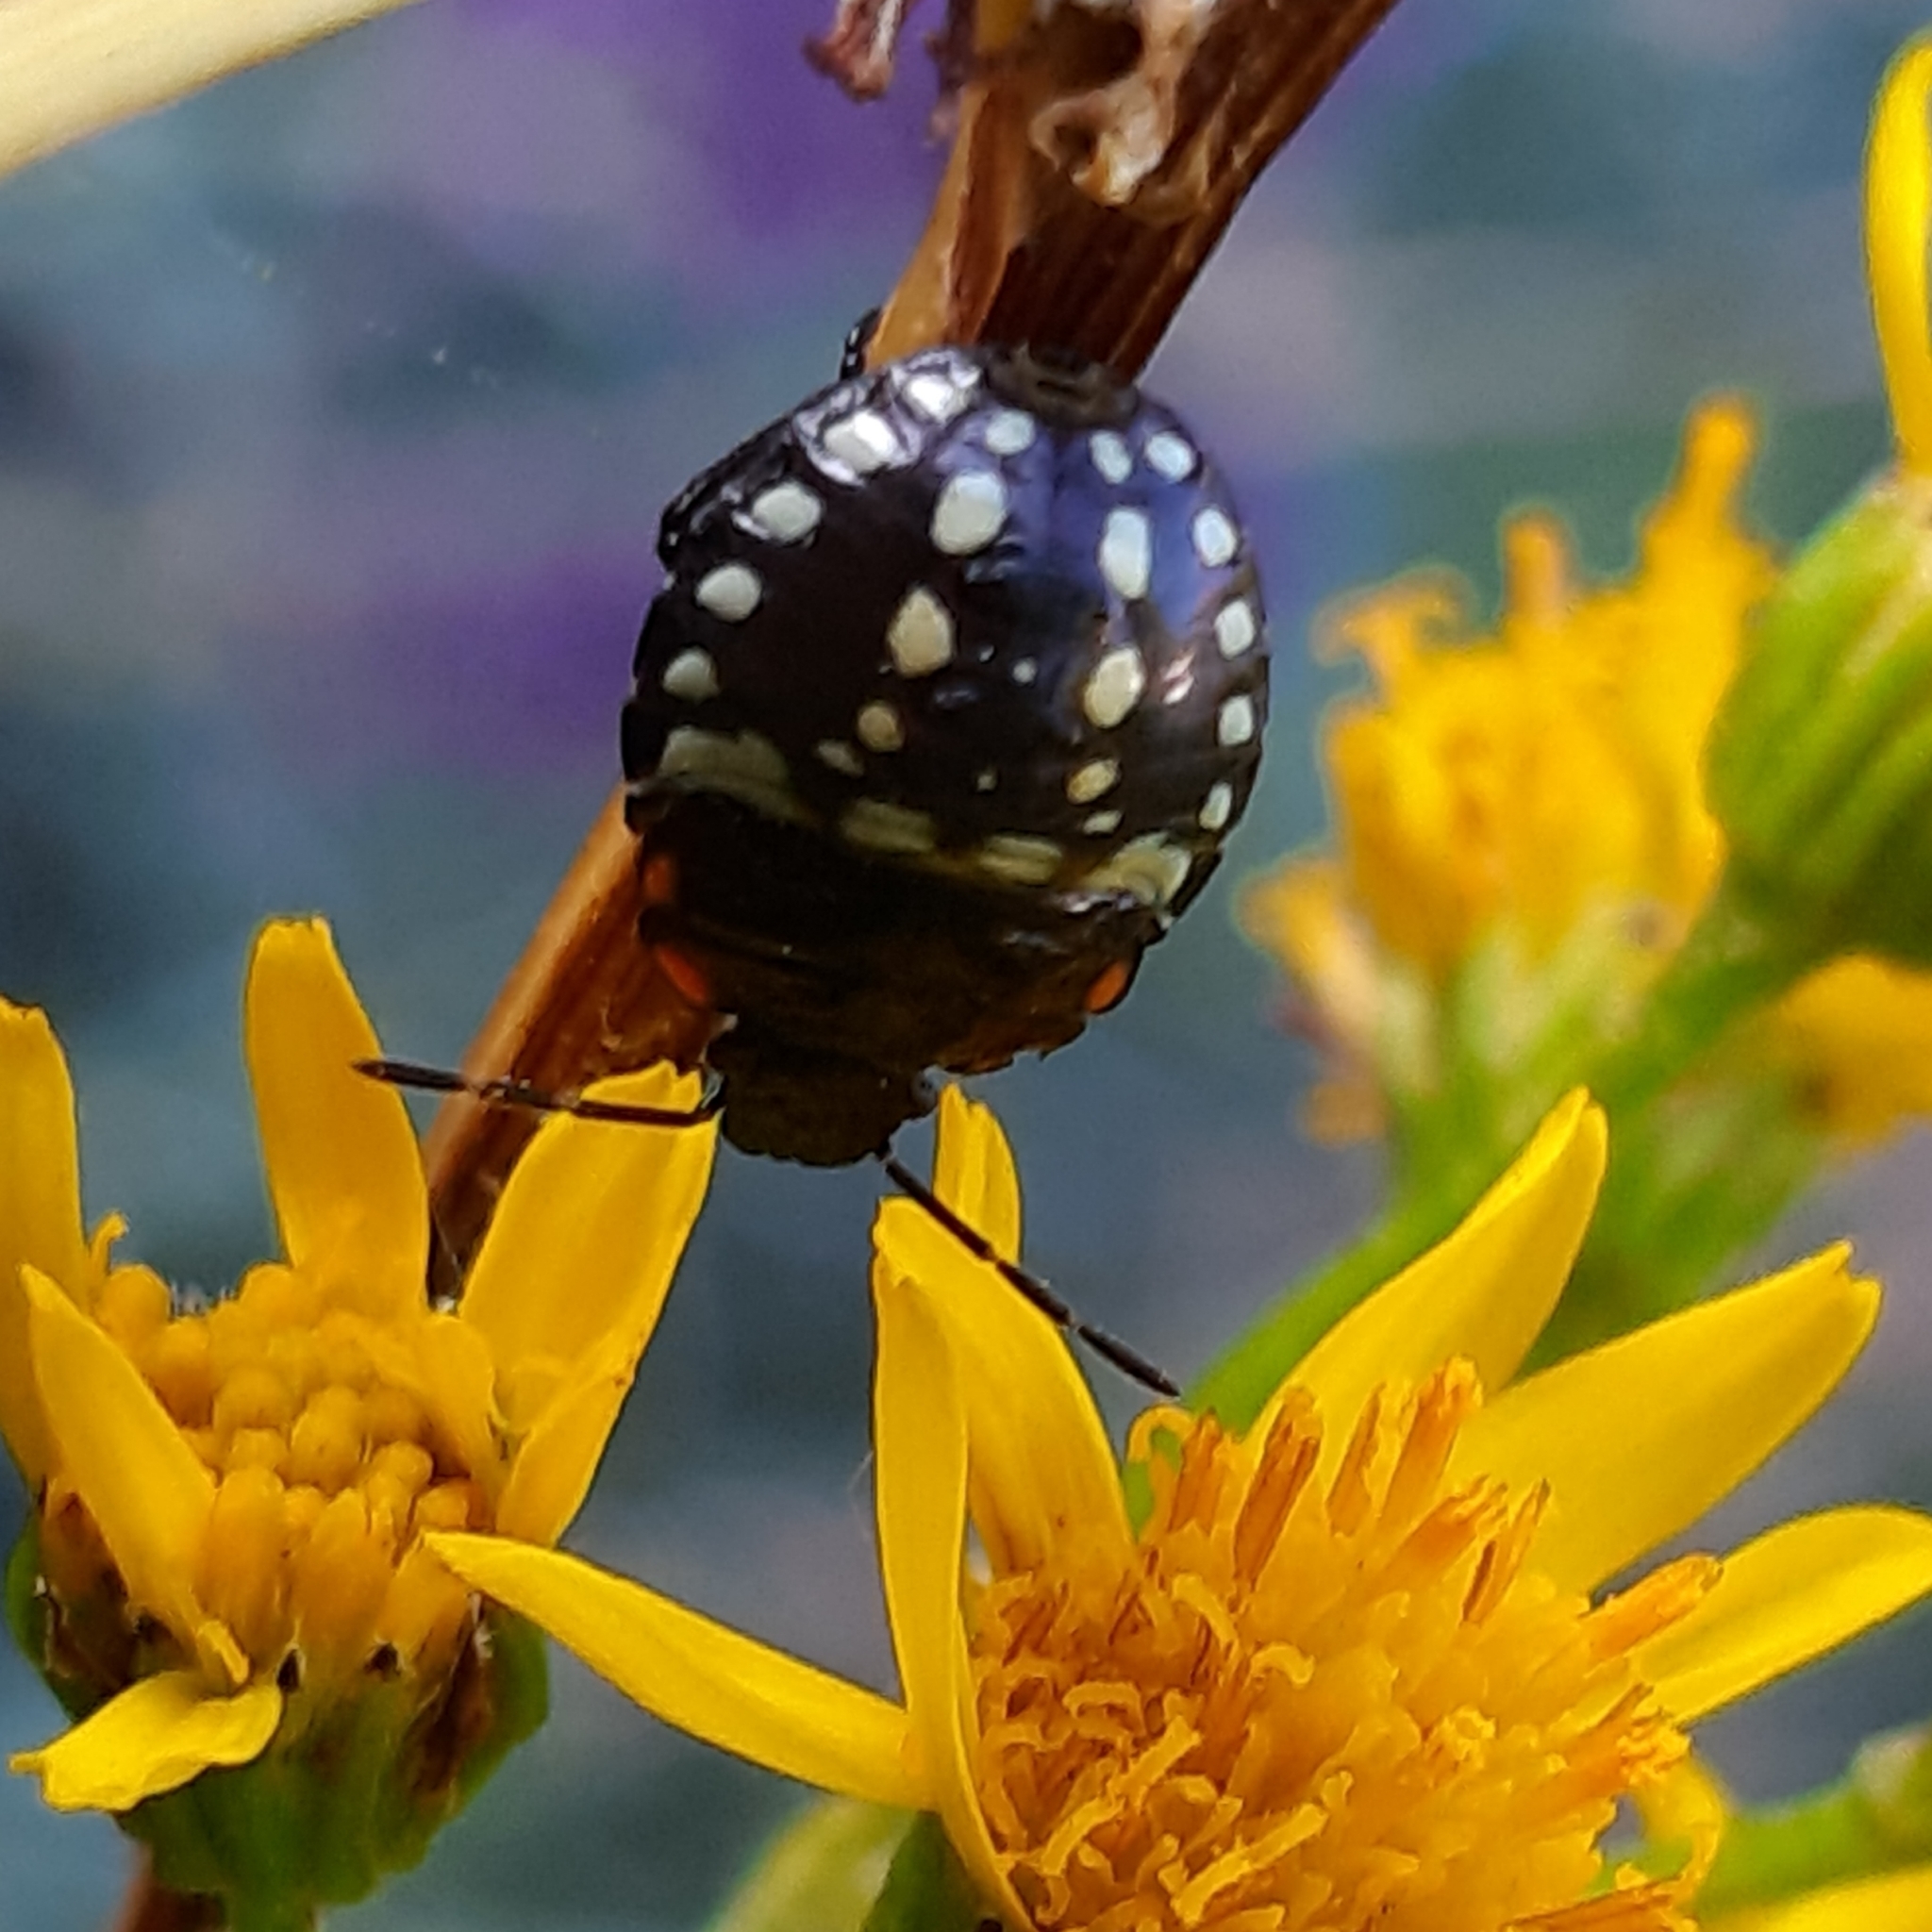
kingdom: Animalia
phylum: Arthropoda
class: Insecta
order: Hemiptera
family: Pentatomidae
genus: Nezara
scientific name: Nezara viridula
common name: Southern green stink bug
